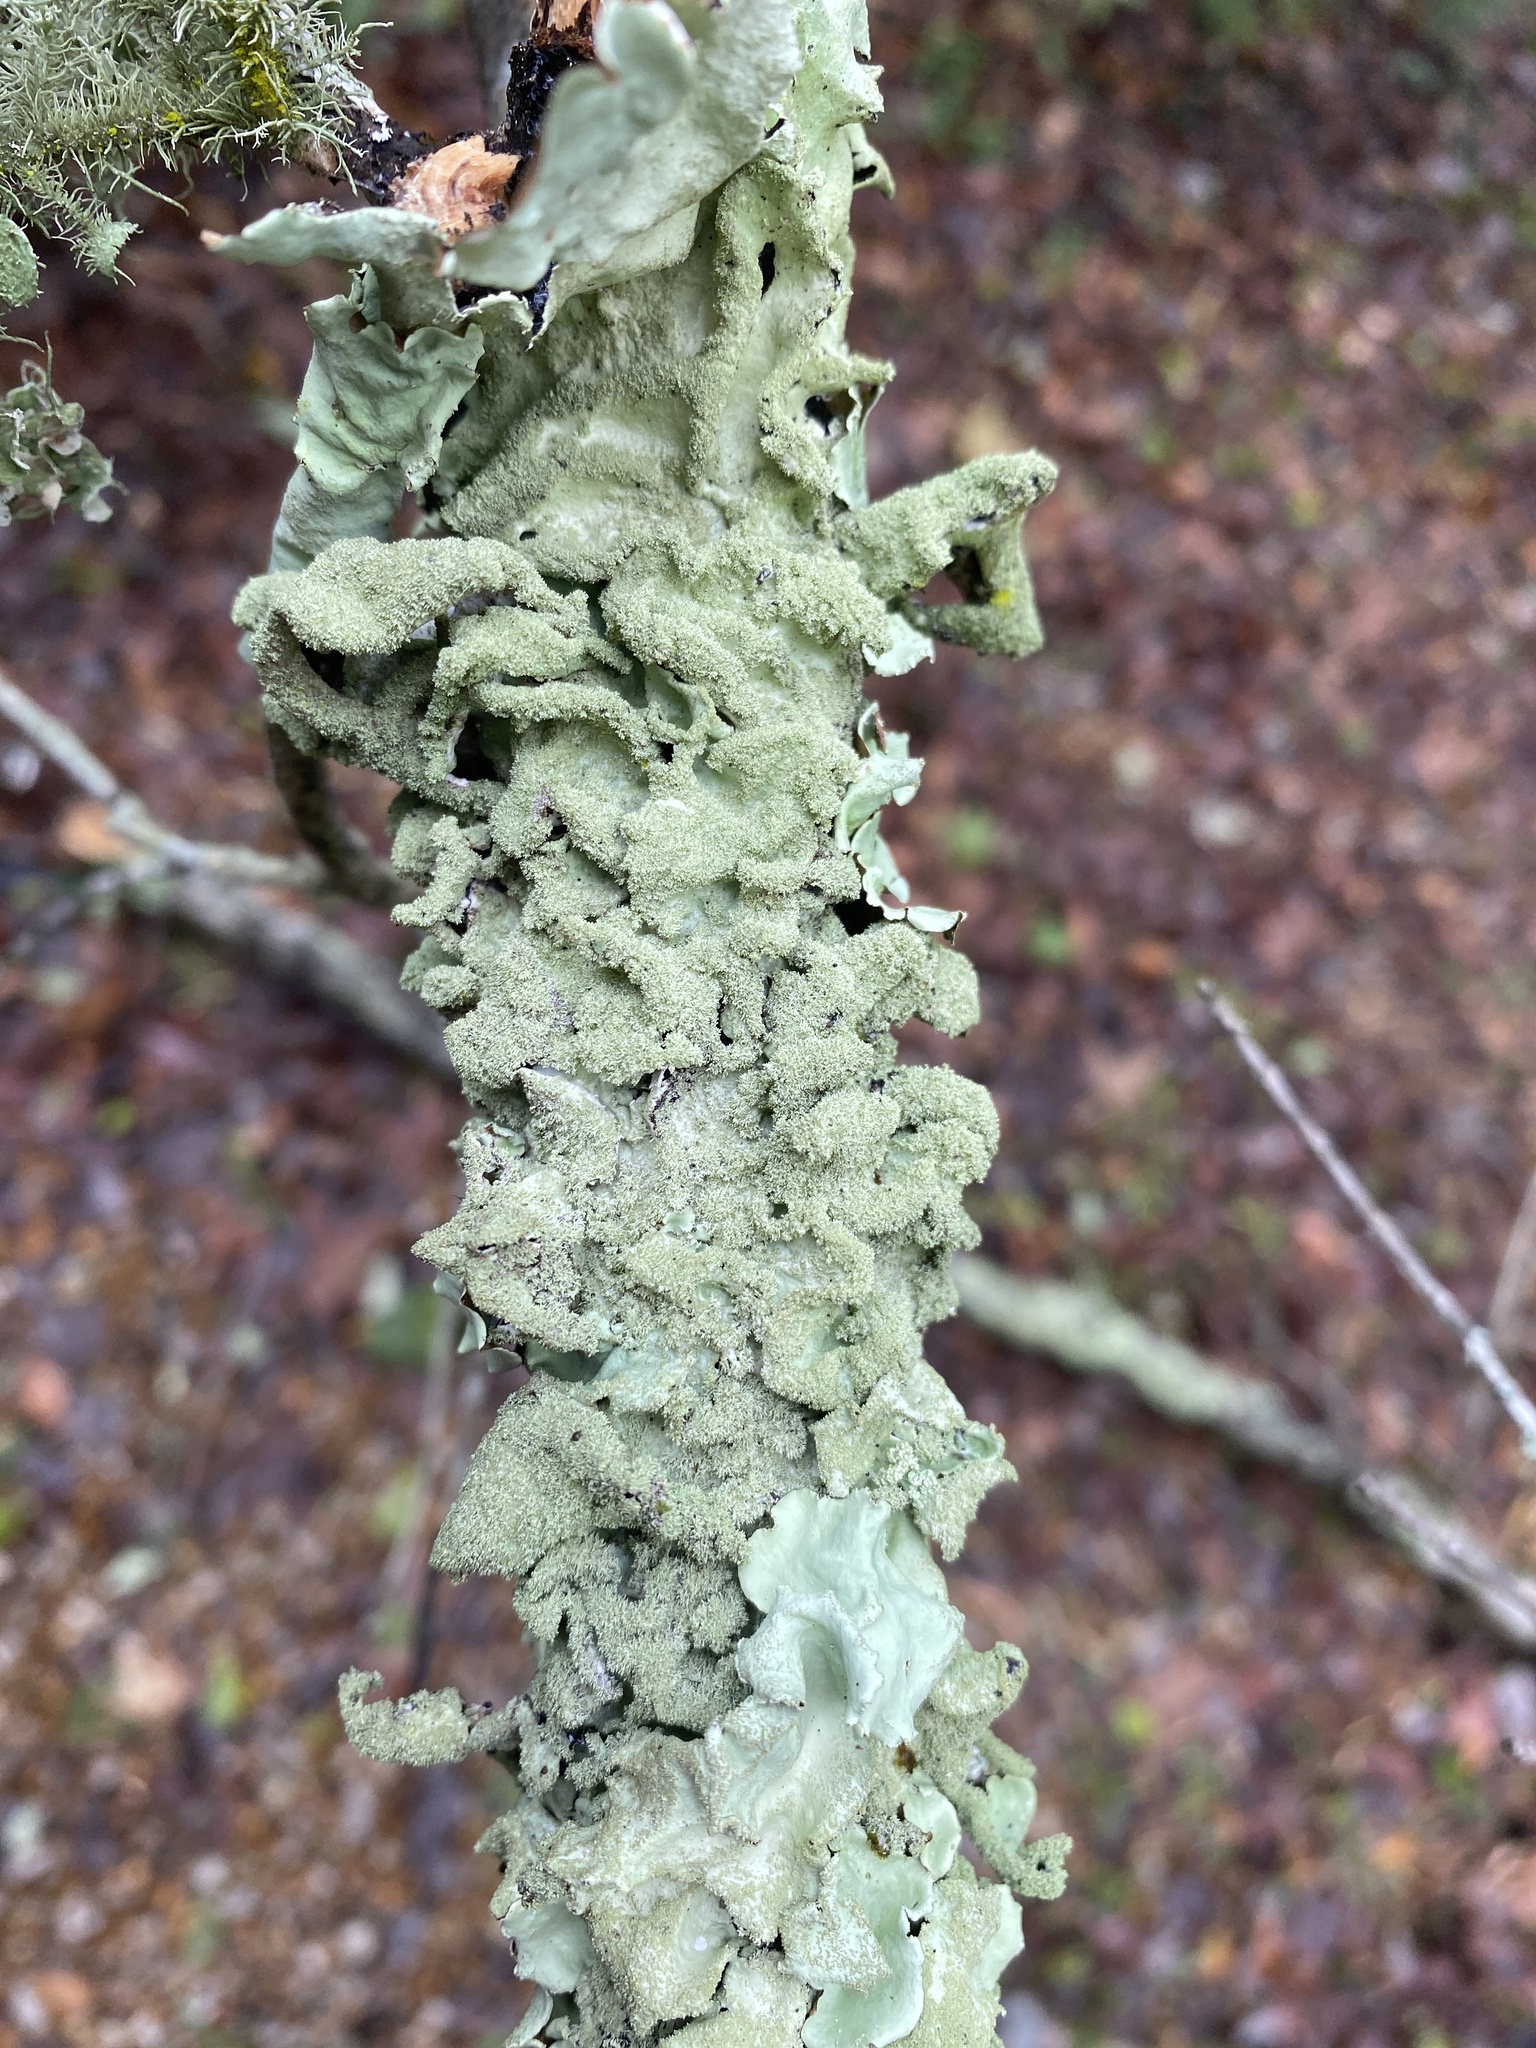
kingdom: Fungi
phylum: Ascomycota
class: Lecanoromycetes
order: Lecanorales
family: Parmeliaceae
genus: Parmotrema
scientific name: Parmotrema tinctorum
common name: Old gray ruffles
